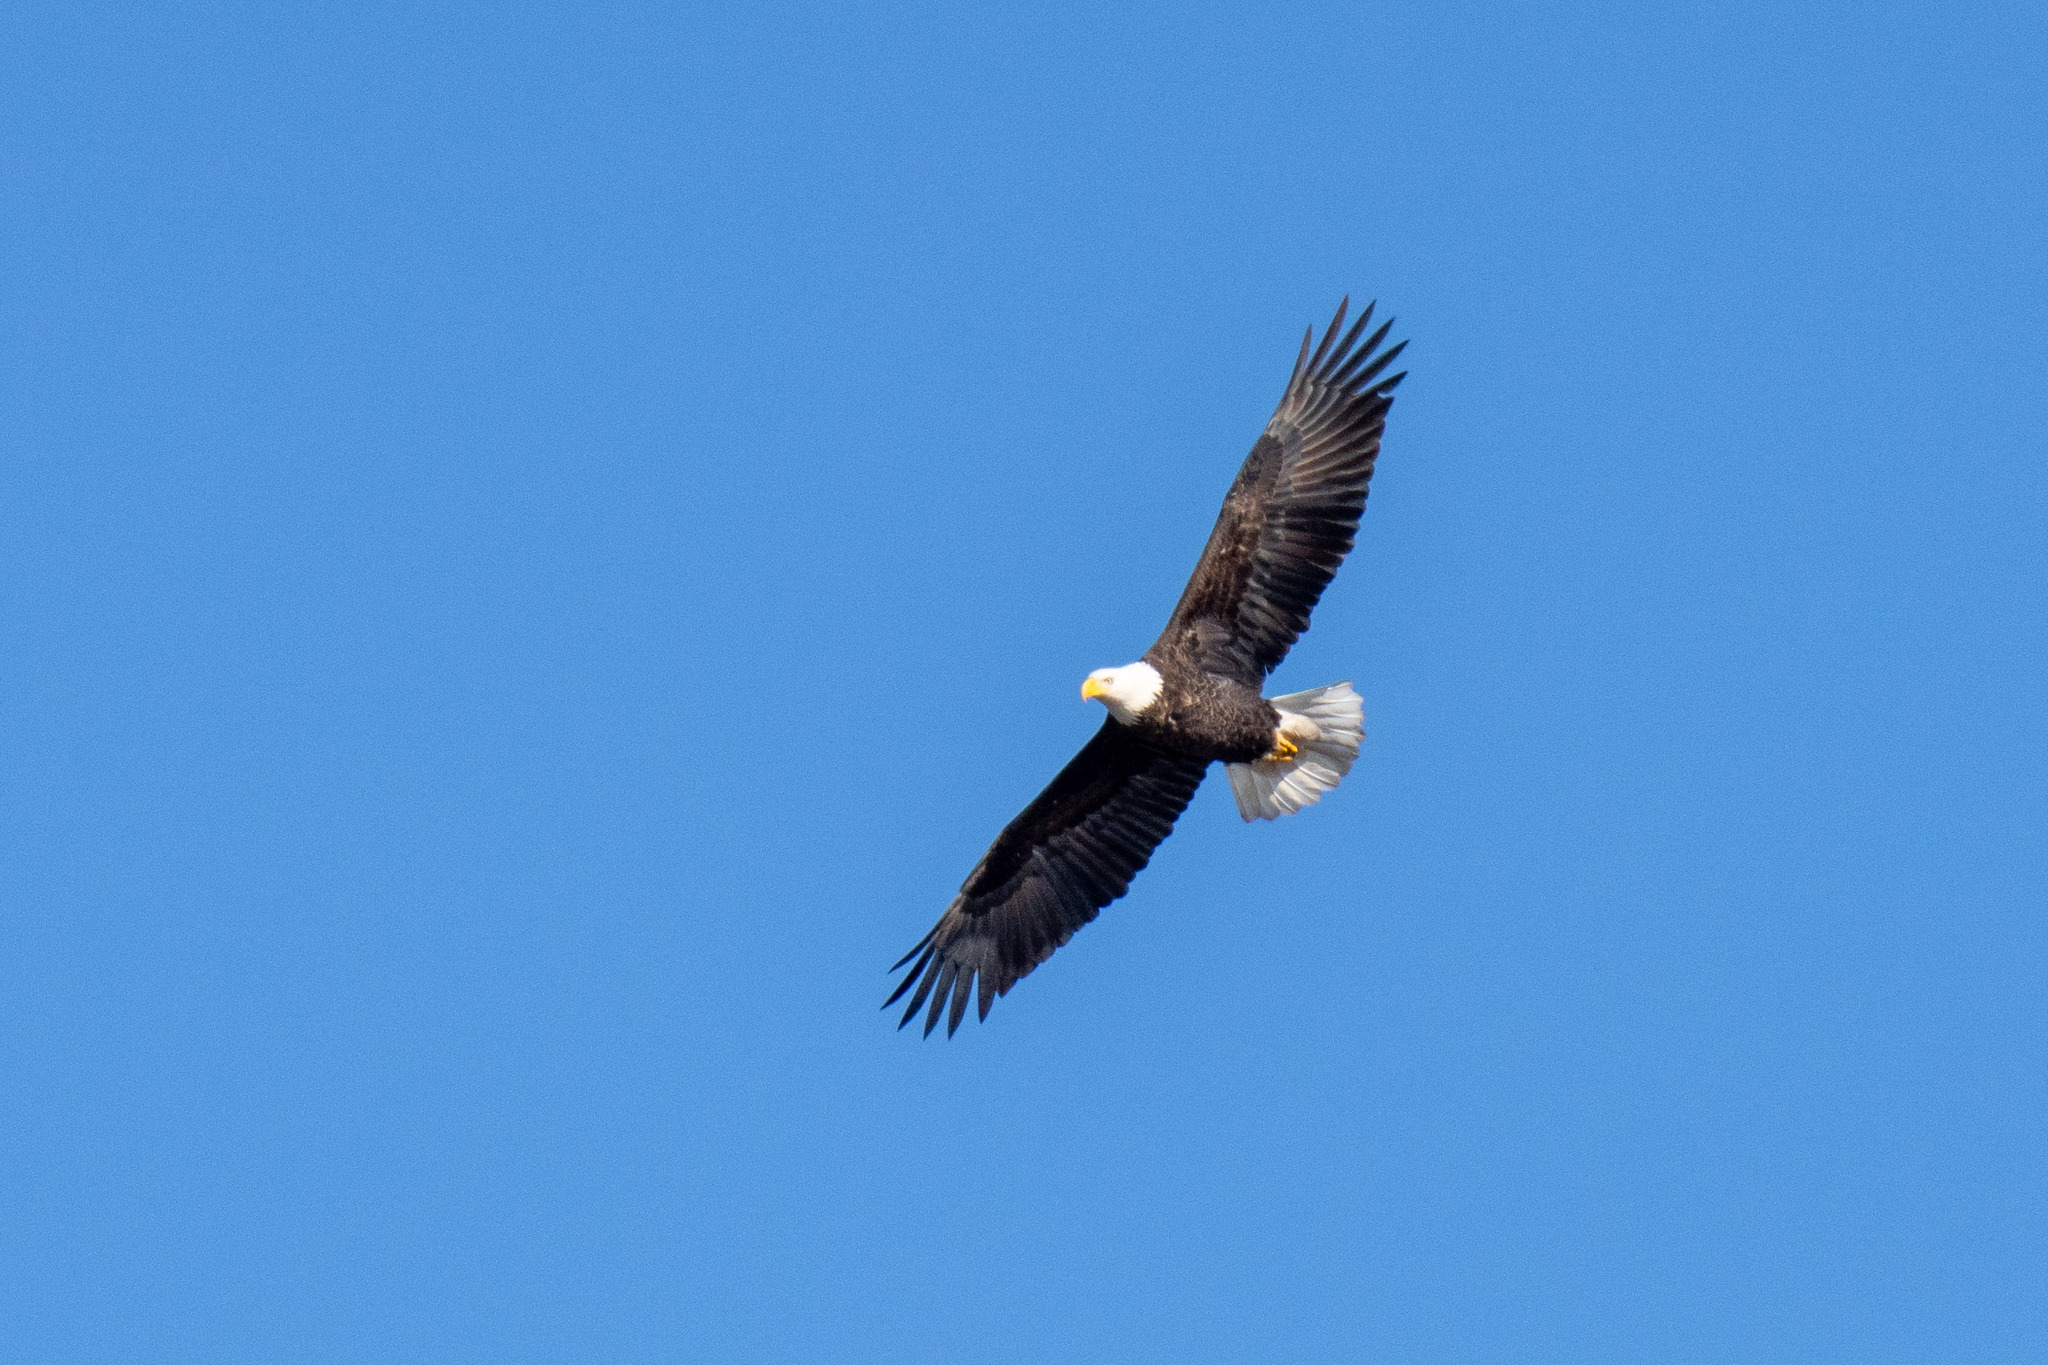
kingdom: Animalia
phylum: Chordata
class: Aves
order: Accipitriformes
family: Accipitridae
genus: Haliaeetus
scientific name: Haliaeetus leucocephalus
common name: Bald eagle
